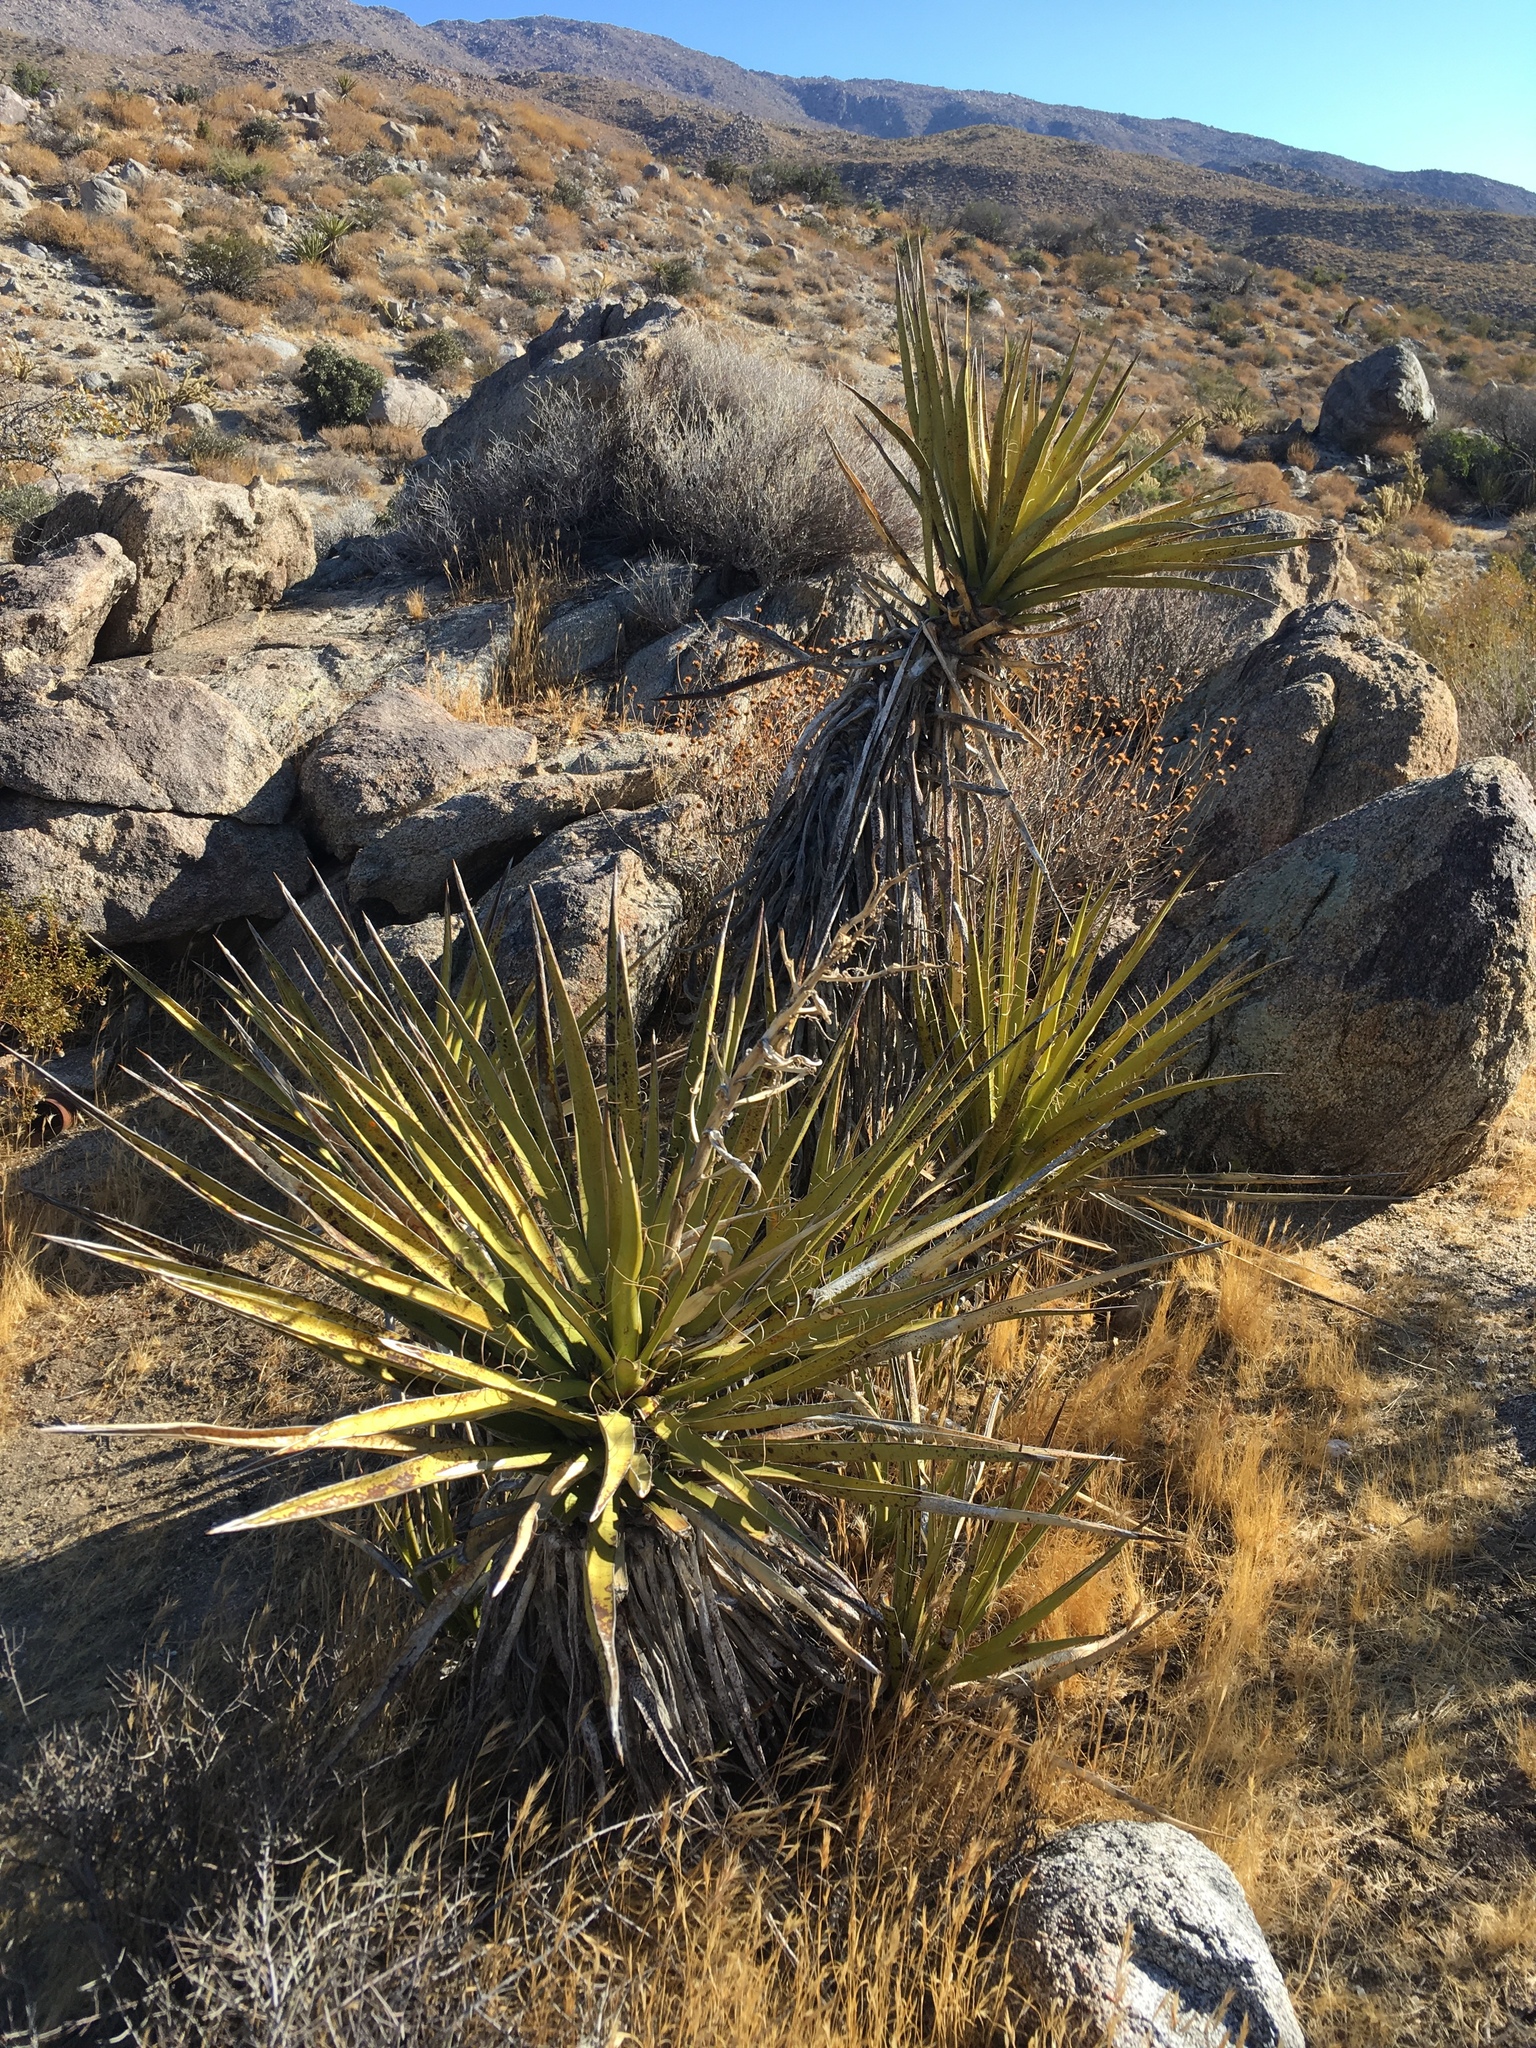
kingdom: Plantae
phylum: Tracheophyta
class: Liliopsida
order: Asparagales
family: Asparagaceae
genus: Yucca
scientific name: Yucca schidigera
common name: Mojave yucca
